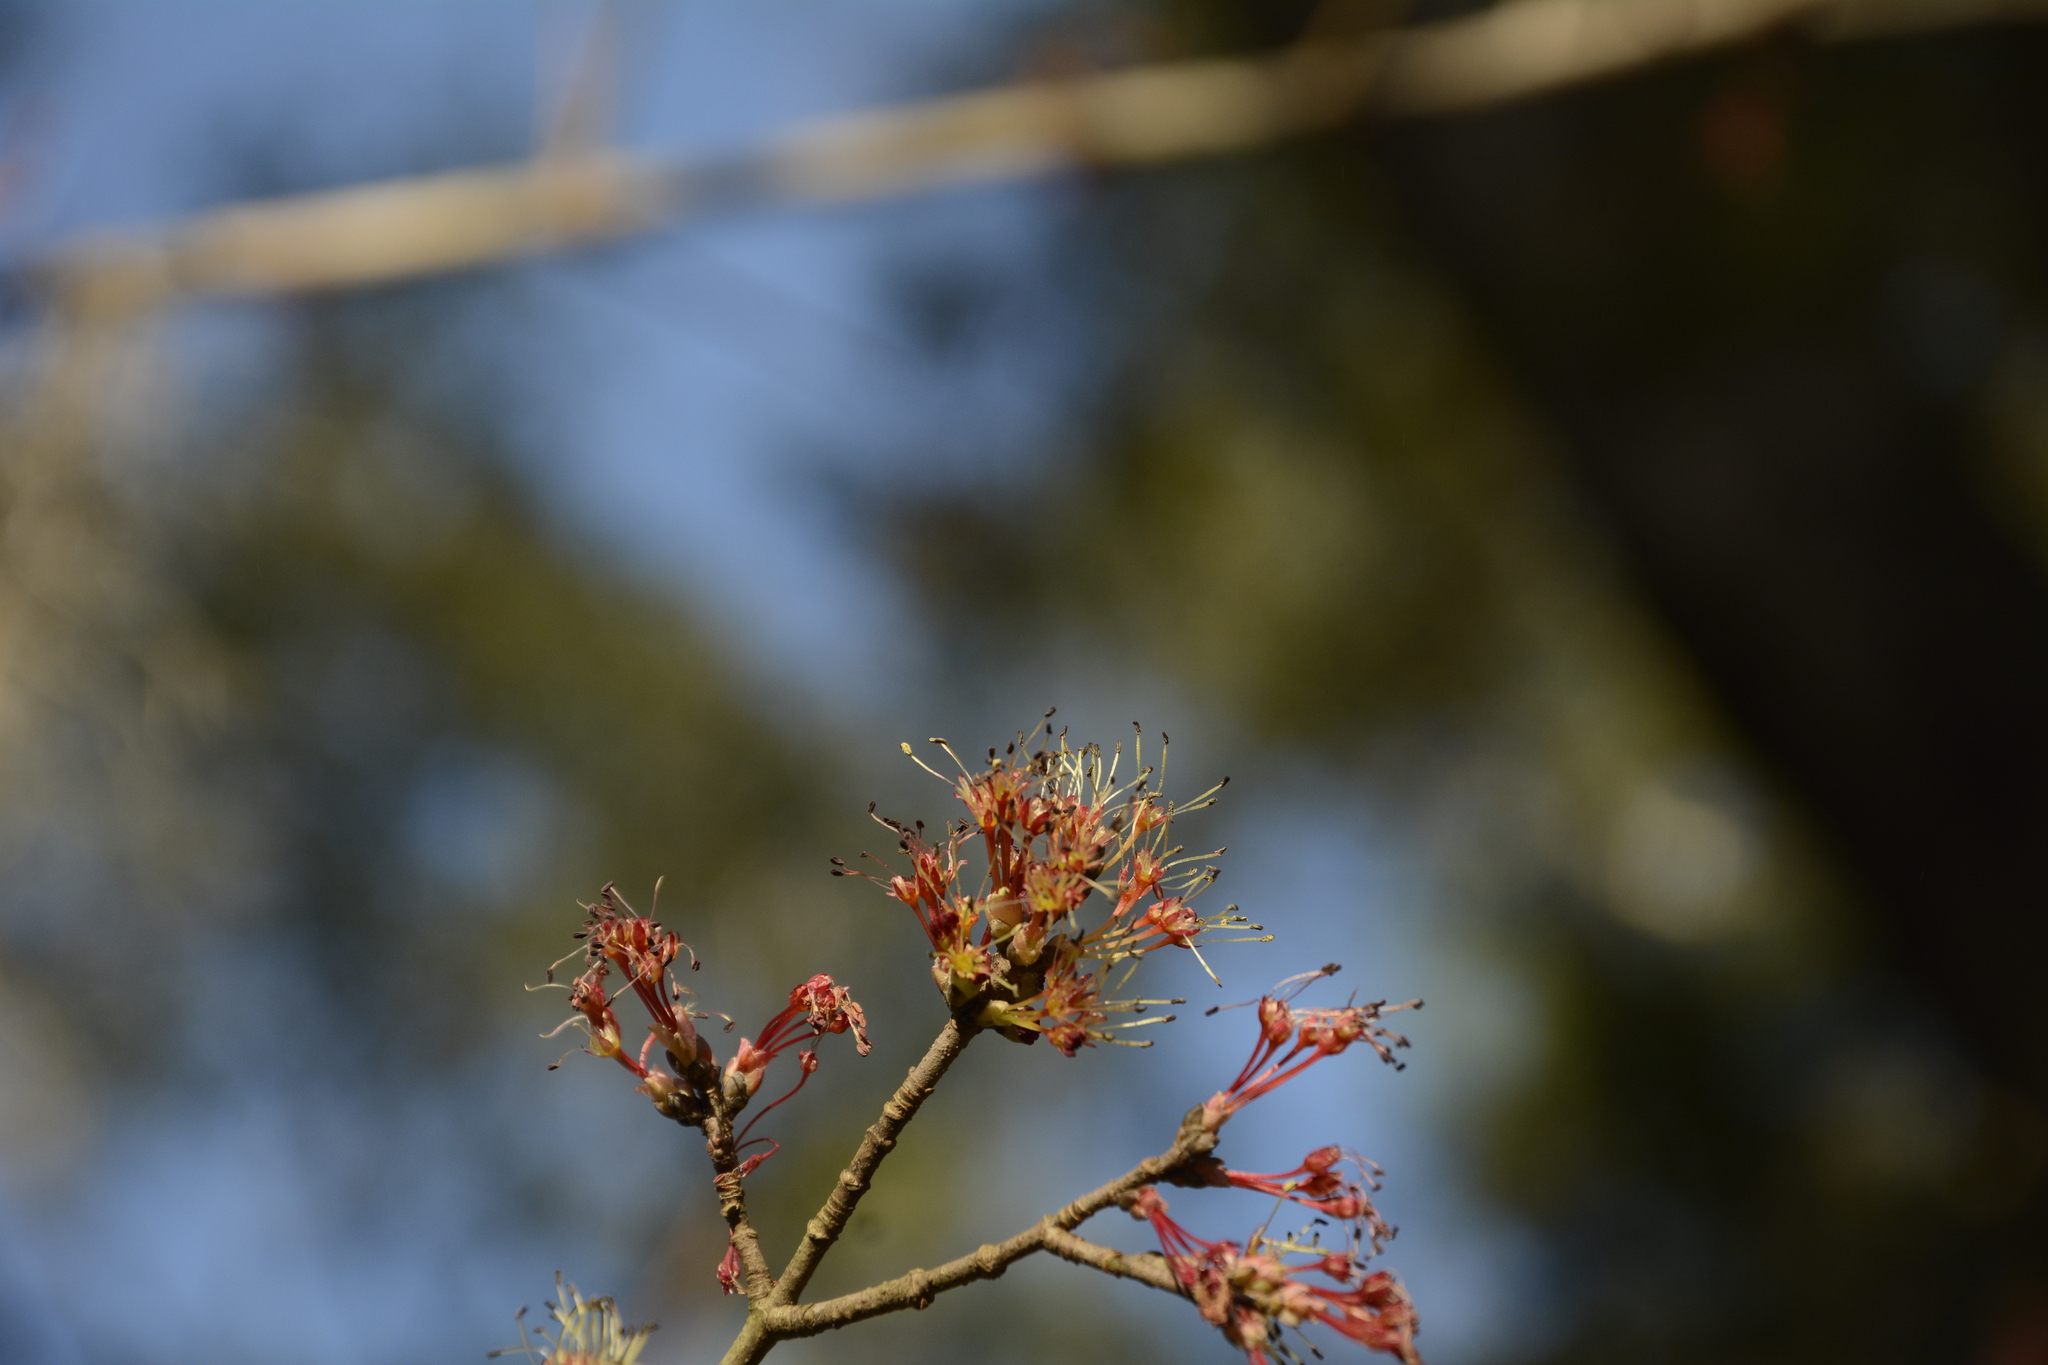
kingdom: Plantae
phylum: Tracheophyta
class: Magnoliopsida
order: Sapindales
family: Sapindaceae
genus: Acer
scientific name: Acer rubrum
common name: Red maple
